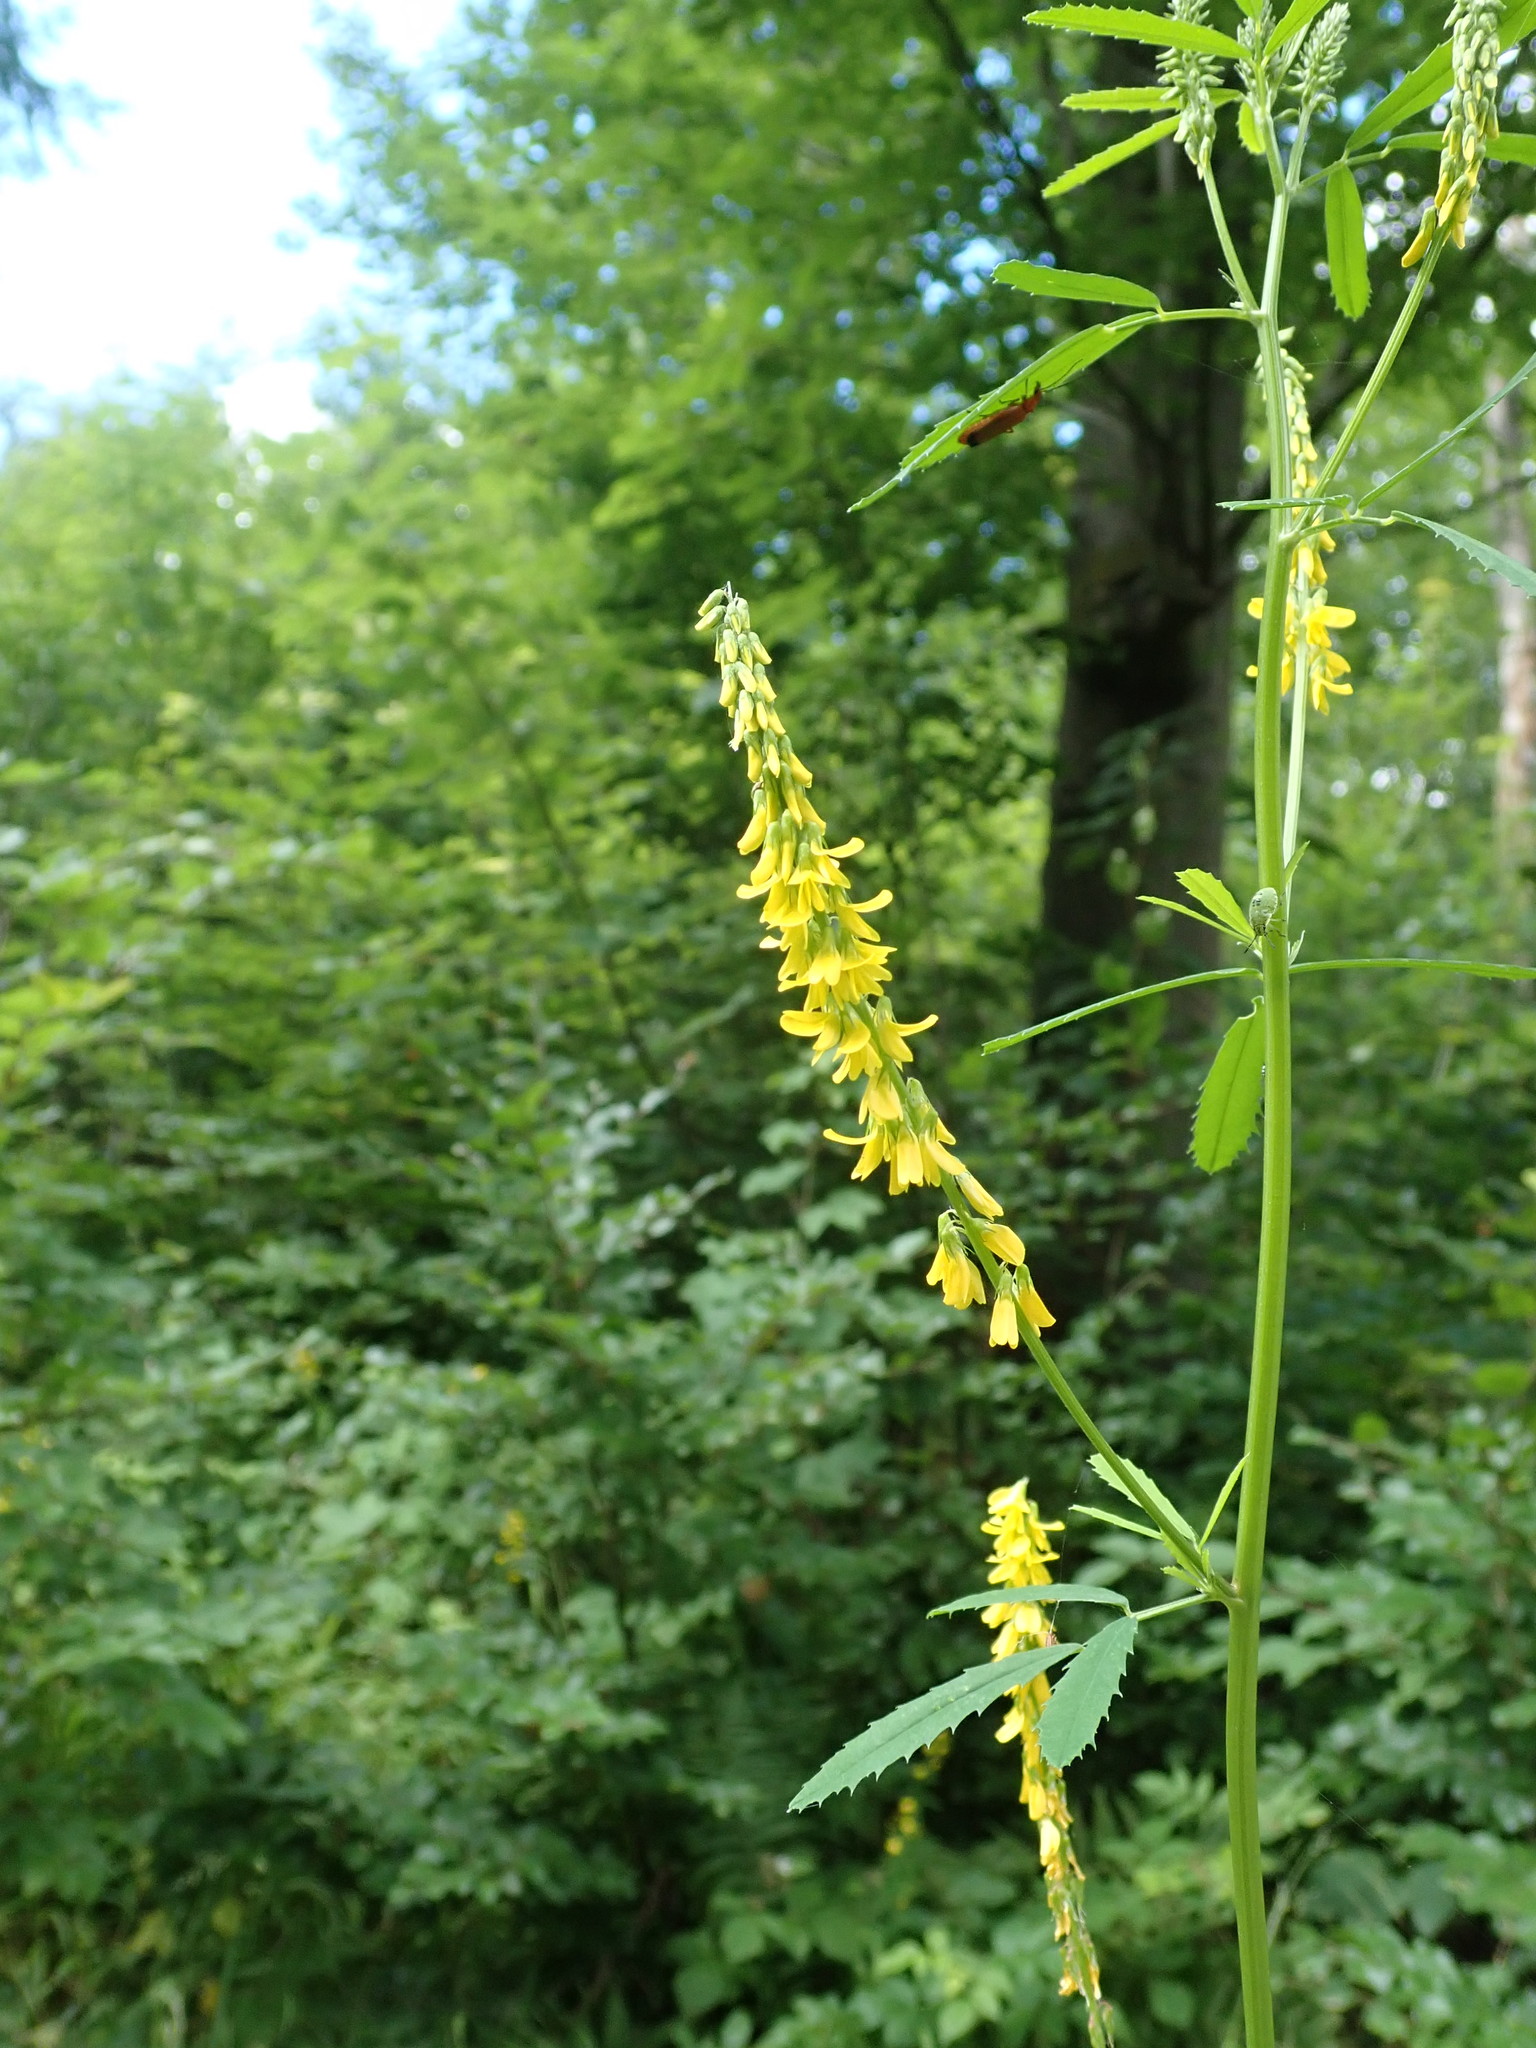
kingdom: Plantae
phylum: Tracheophyta
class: Magnoliopsida
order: Fabales
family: Fabaceae
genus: Melilotus
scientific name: Melilotus officinalis
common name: Sweetclover
